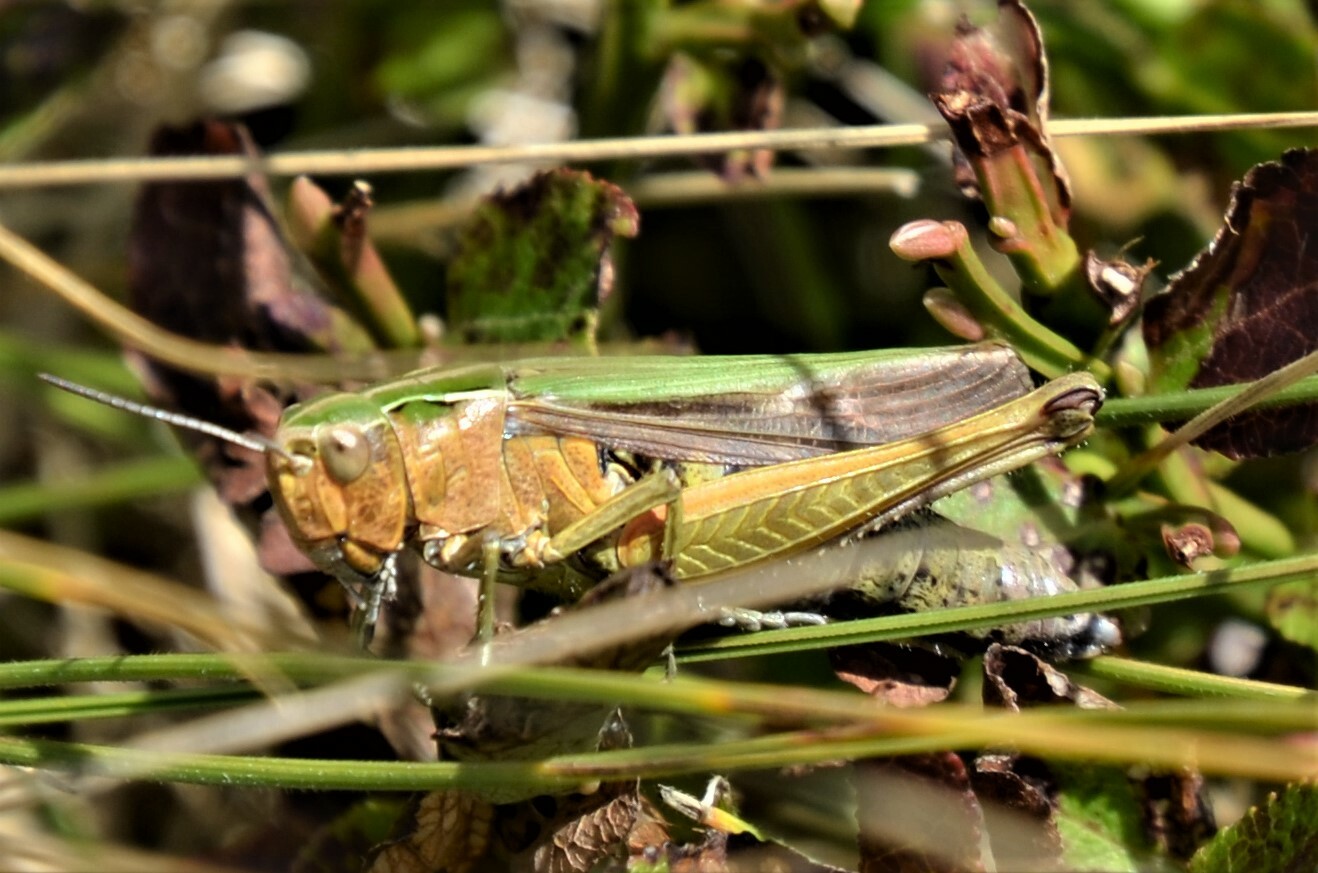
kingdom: Animalia
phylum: Arthropoda
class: Insecta
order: Orthoptera
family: Acrididae
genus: Omocestus
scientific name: Omocestus viridulus
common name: Common green grasshopper
